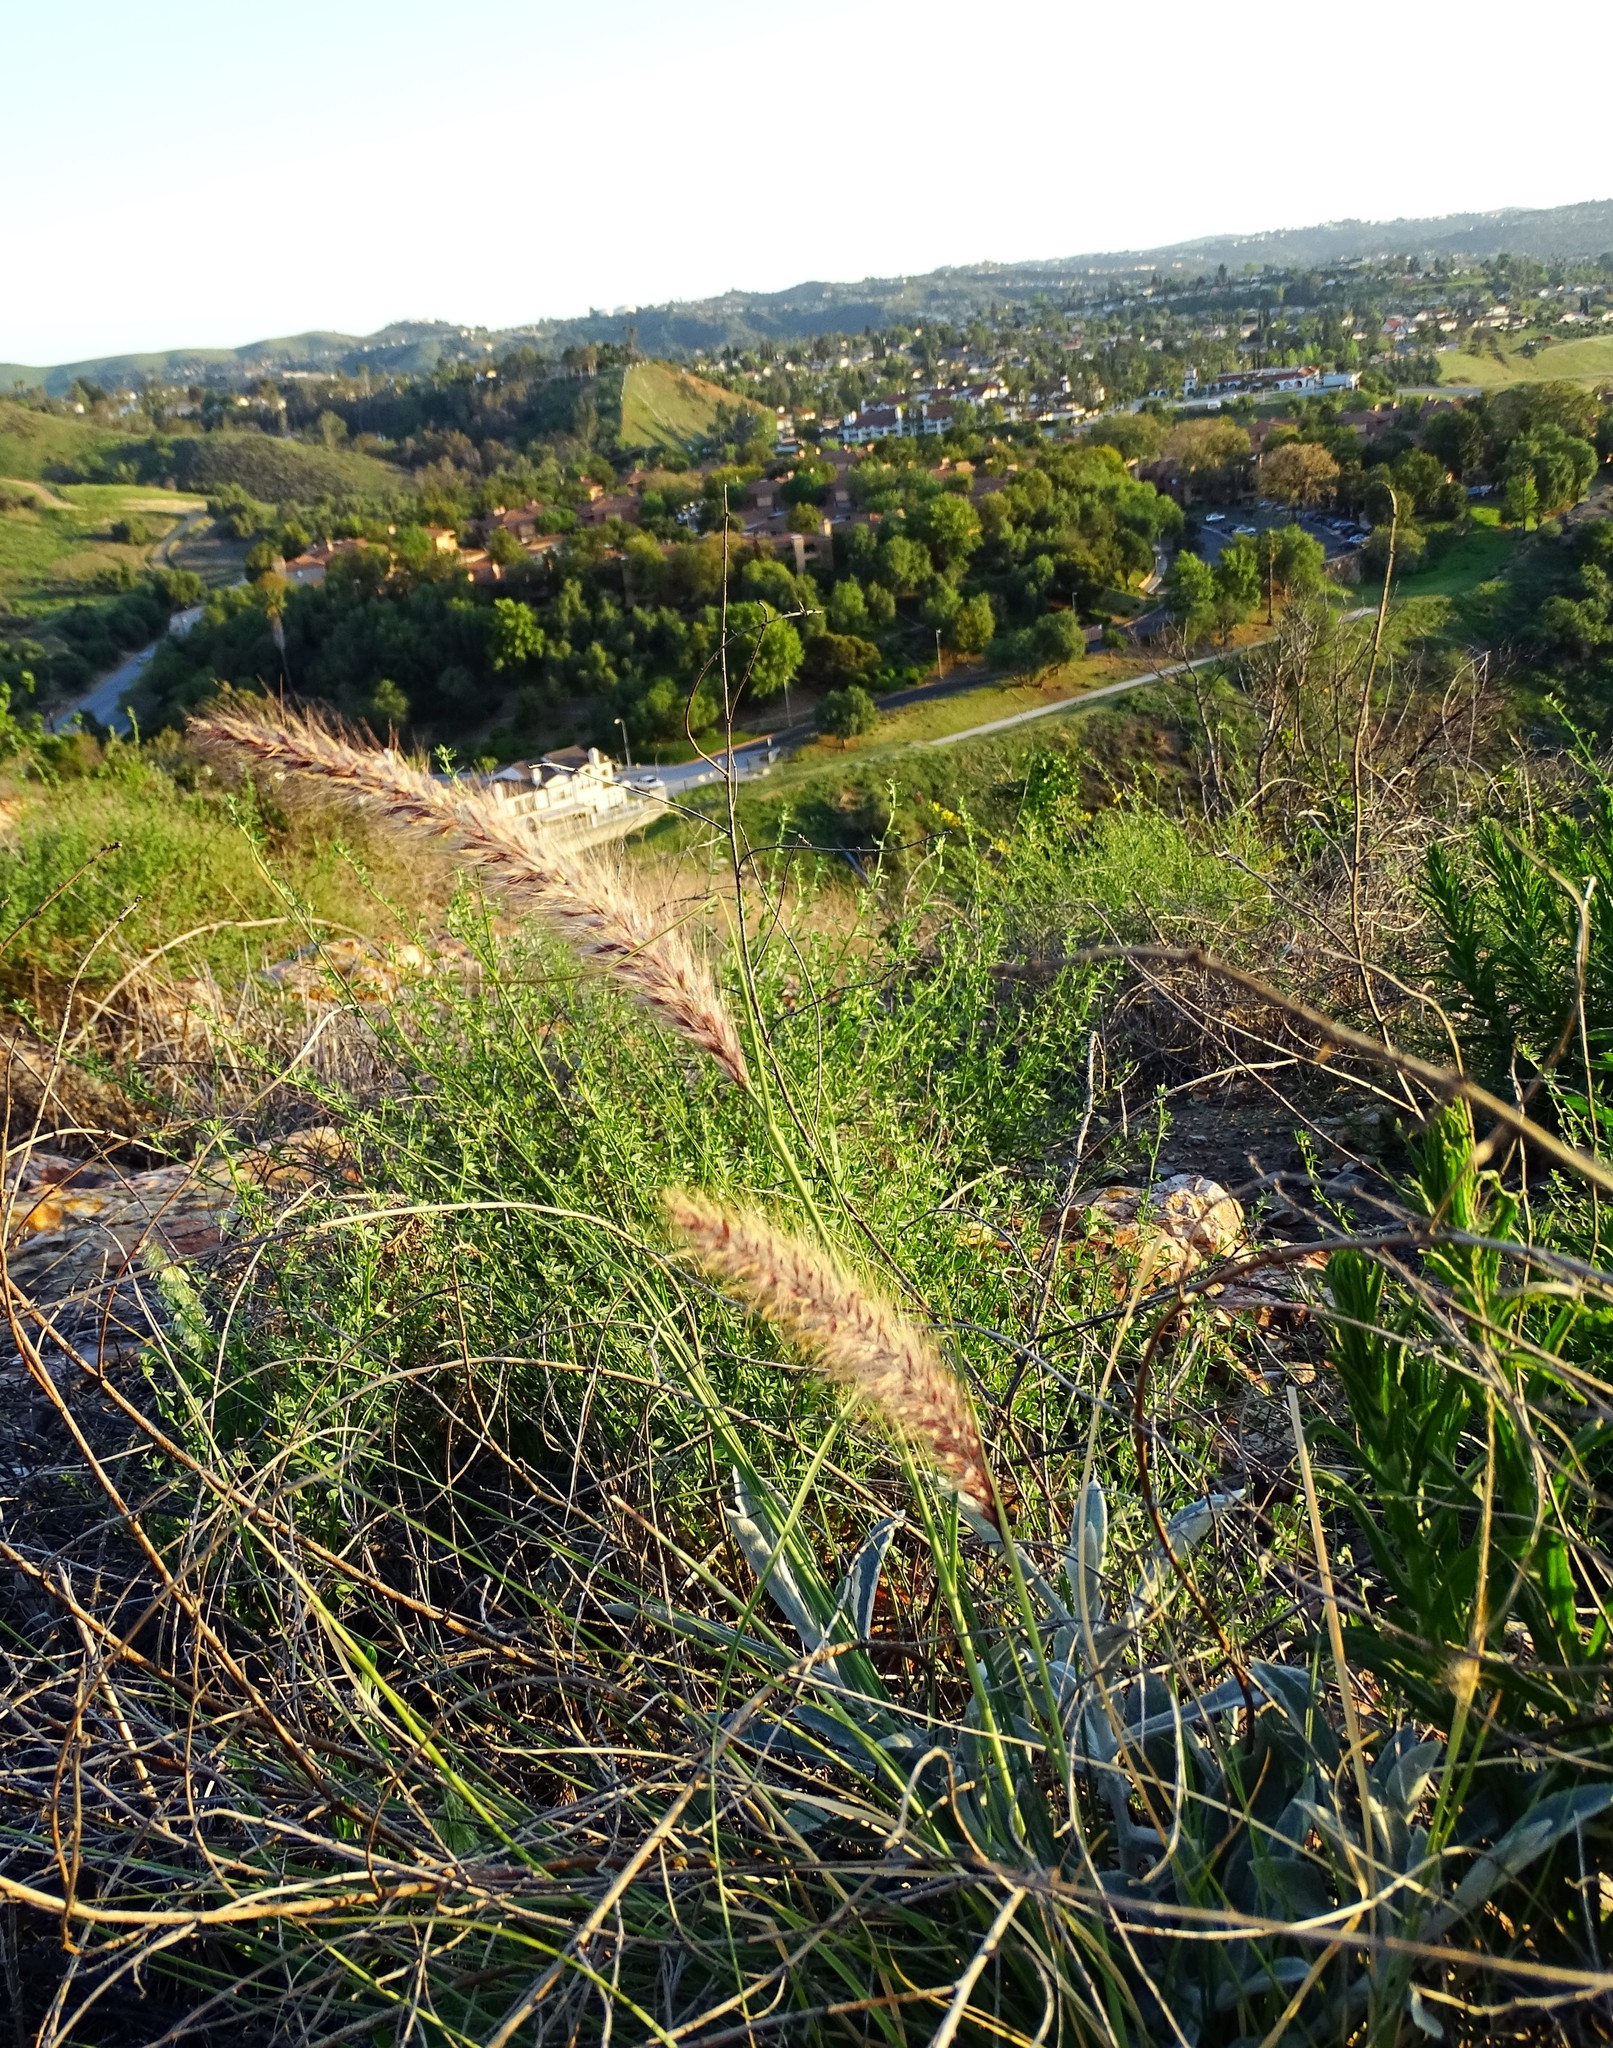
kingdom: Plantae
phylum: Tracheophyta
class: Liliopsida
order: Poales
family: Poaceae
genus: Cenchrus
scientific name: Cenchrus setaceus
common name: Crimson fountaingrass
